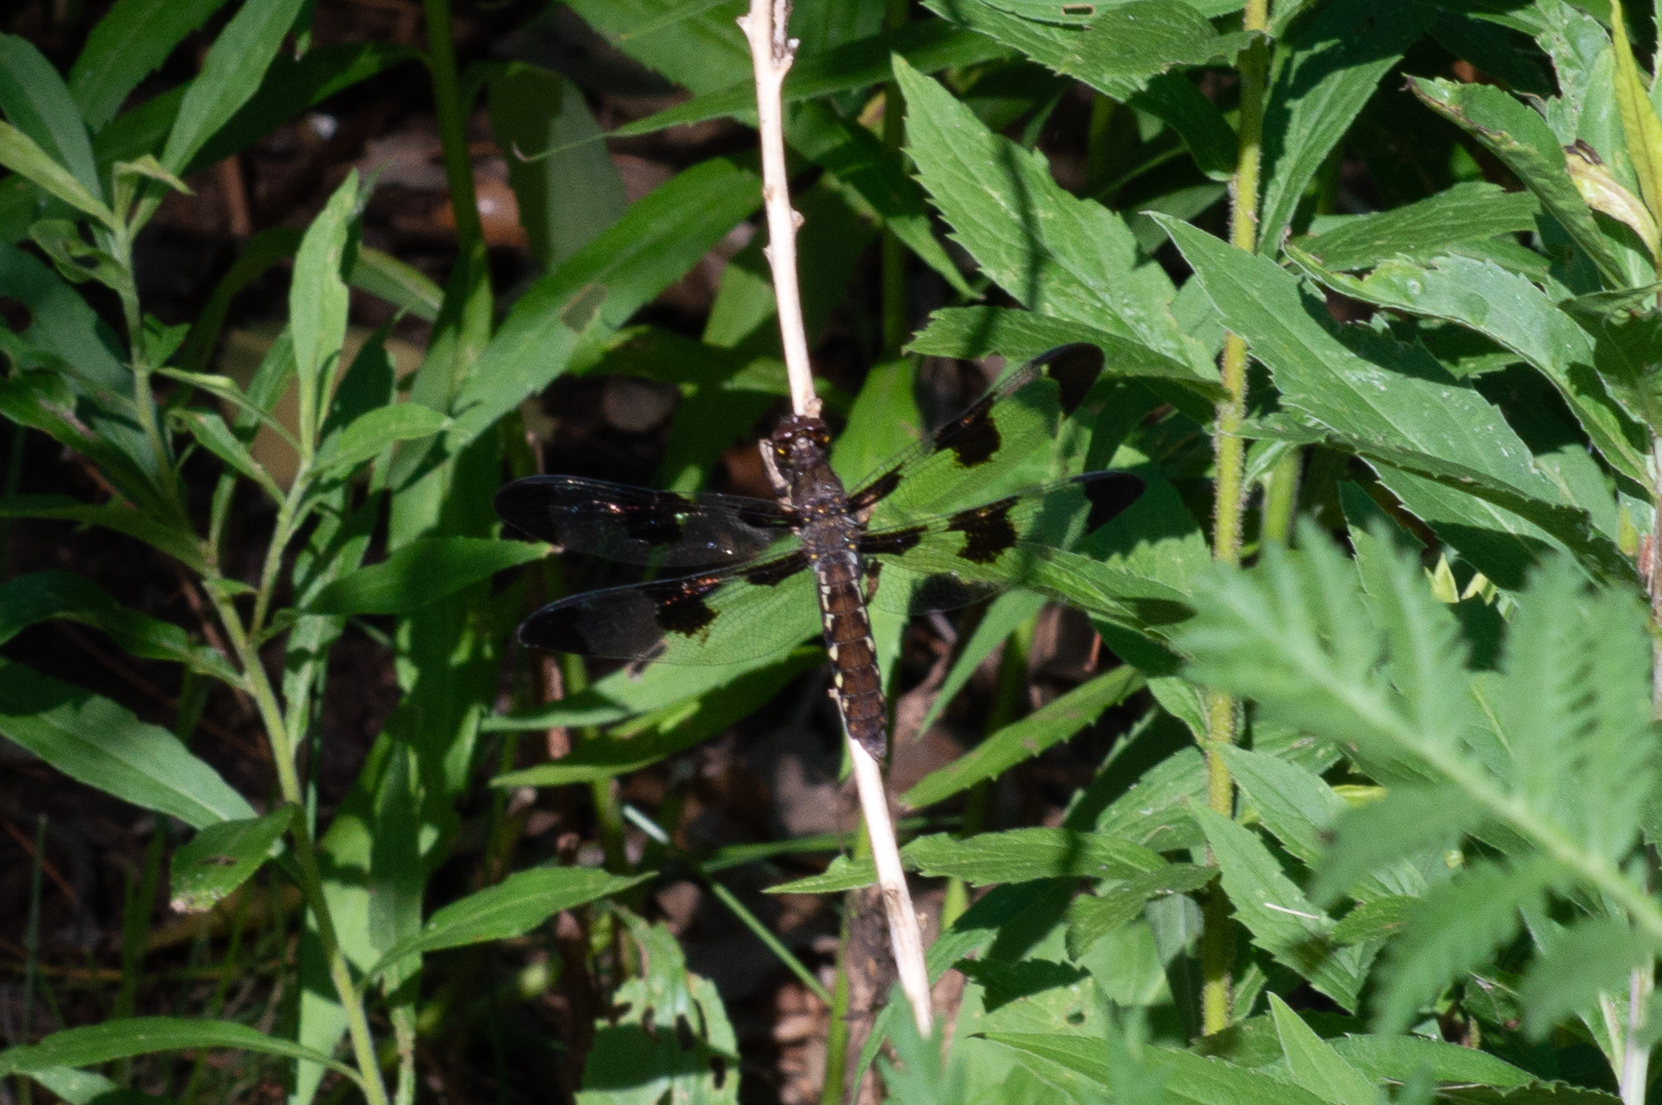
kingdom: Animalia
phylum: Arthropoda
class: Insecta
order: Odonata
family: Libellulidae
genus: Plathemis
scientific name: Plathemis lydia
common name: Common whitetail
